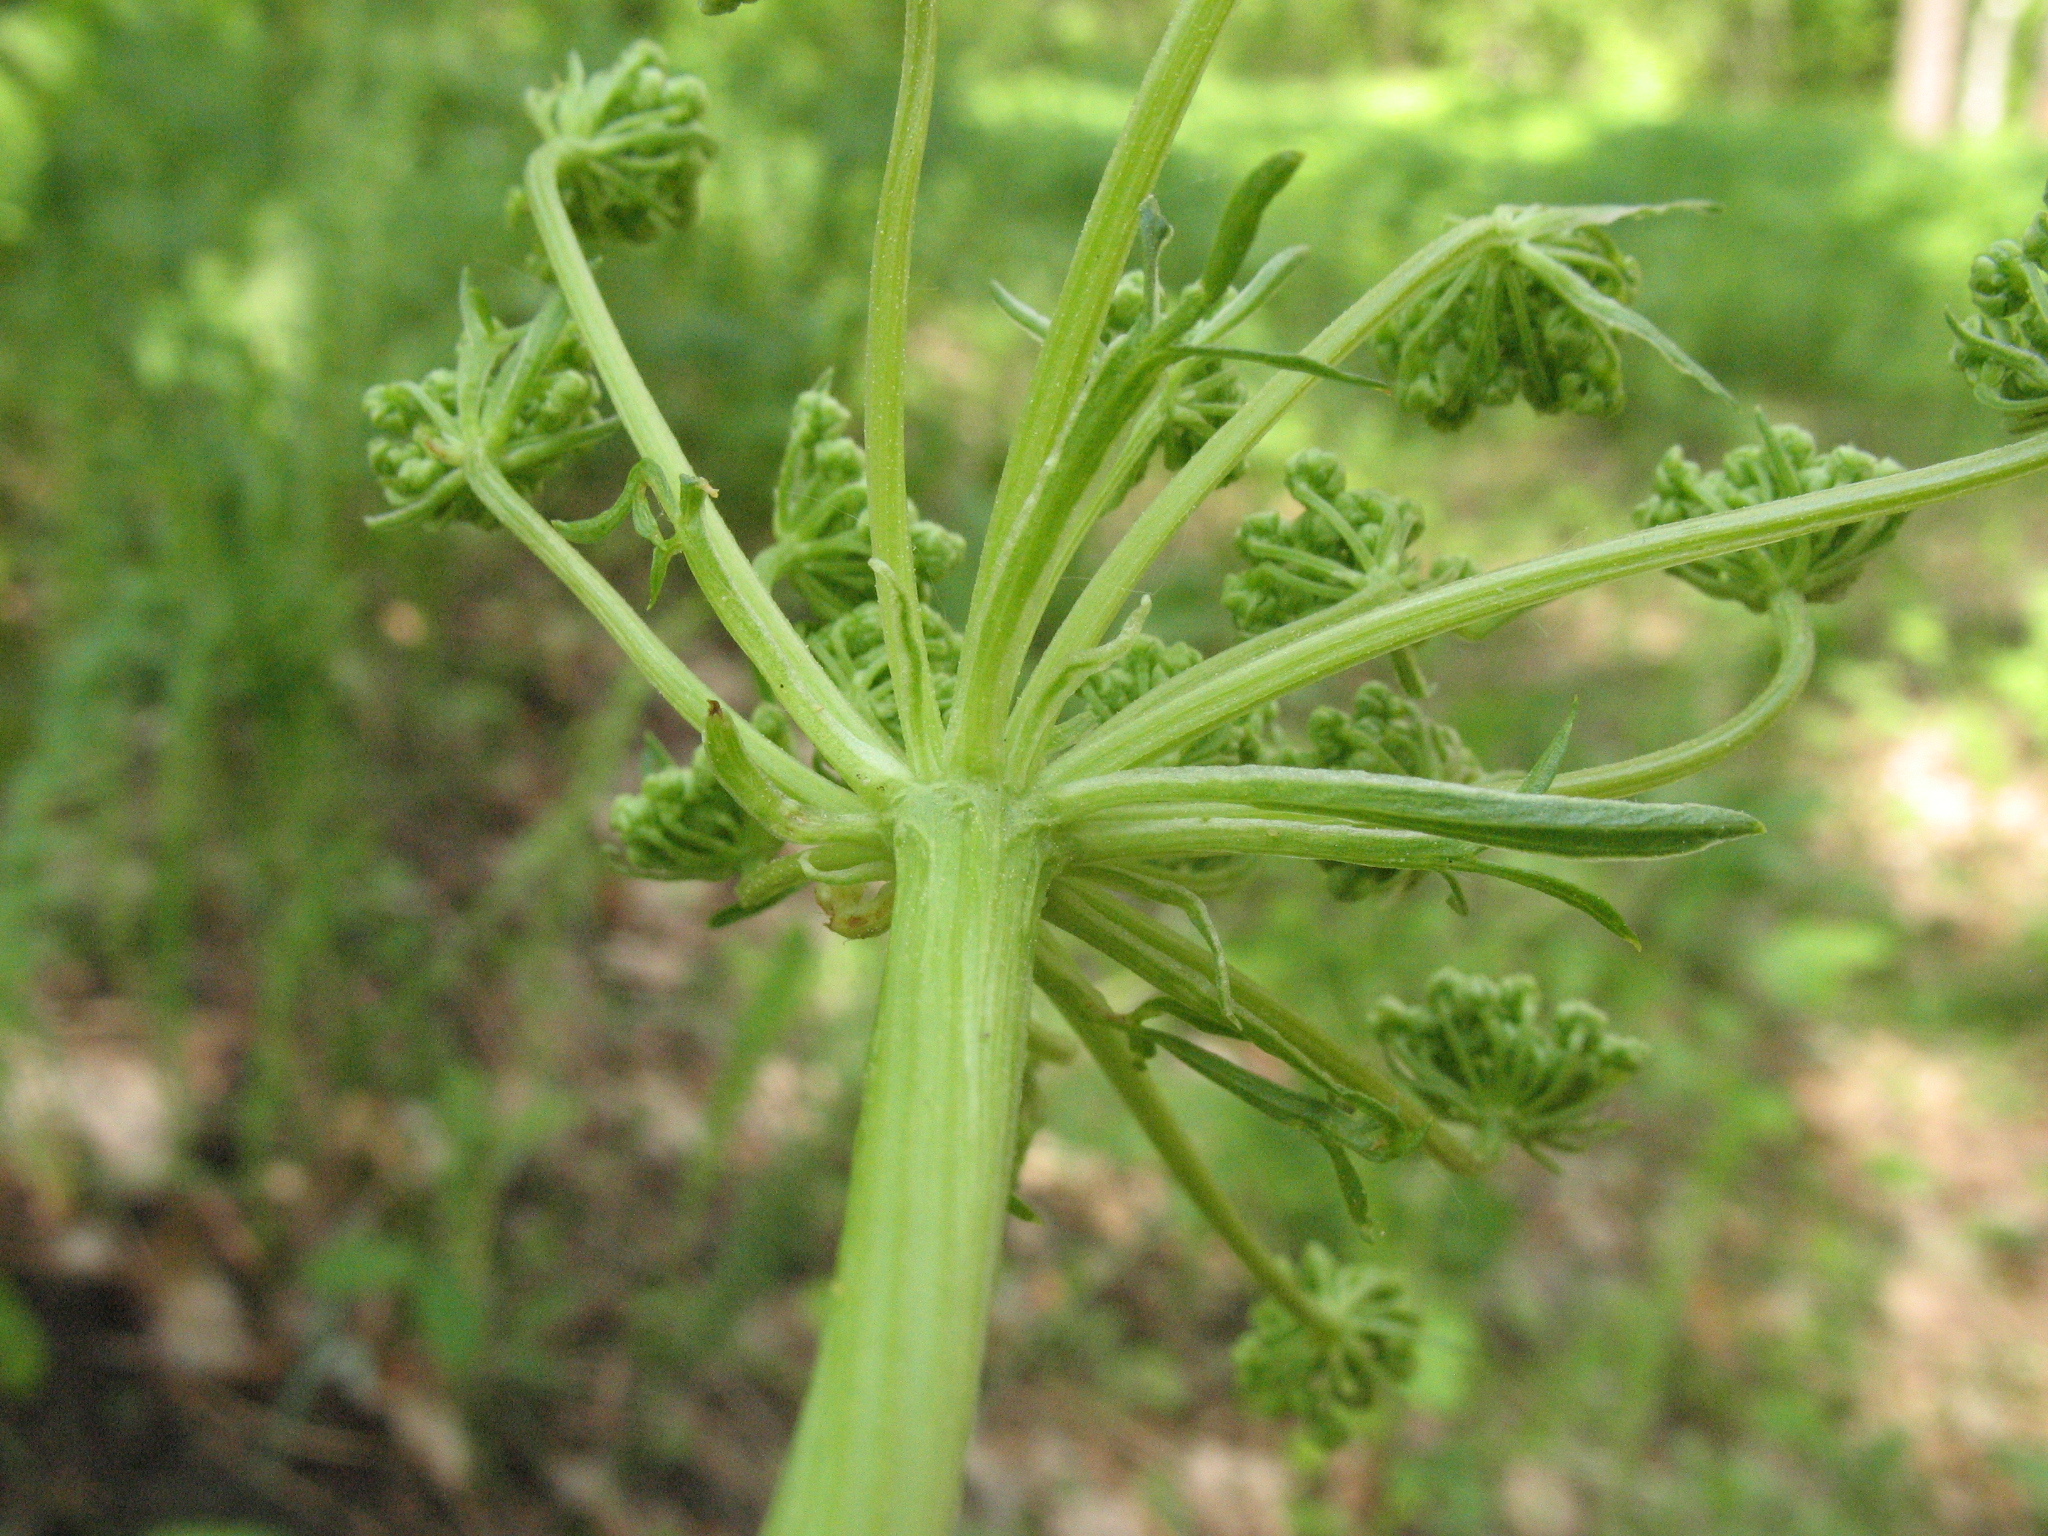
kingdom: Plantae
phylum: Tracheophyta
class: Magnoliopsida
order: Apiales
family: Apiaceae
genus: Aulacospermum
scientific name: Aulacospermum multifidum
